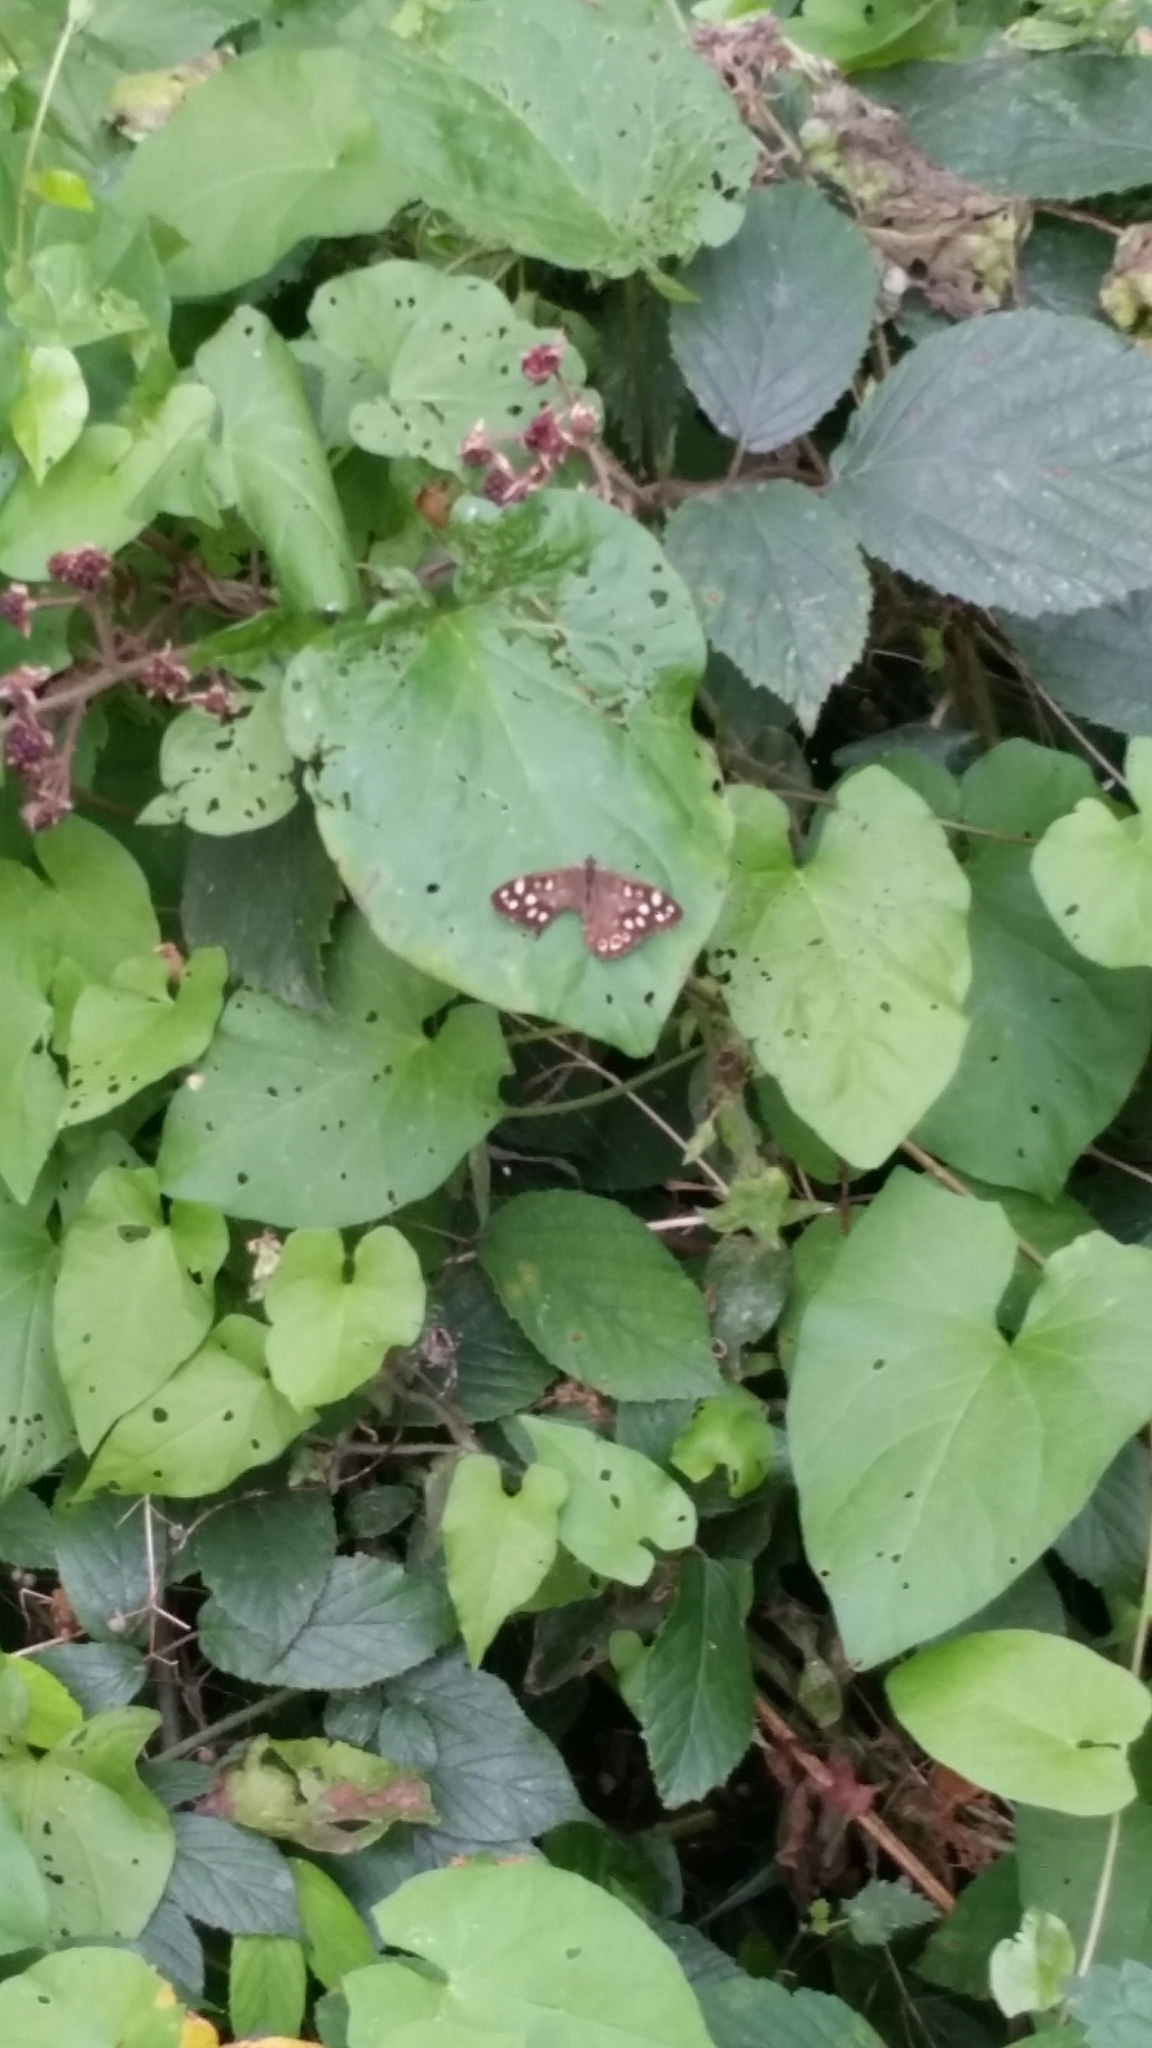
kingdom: Animalia
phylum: Arthropoda
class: Insecta
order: Lepidoptera
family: Nymphalidae
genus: Pararge
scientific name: Pararge aegeria
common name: Speckled wood
